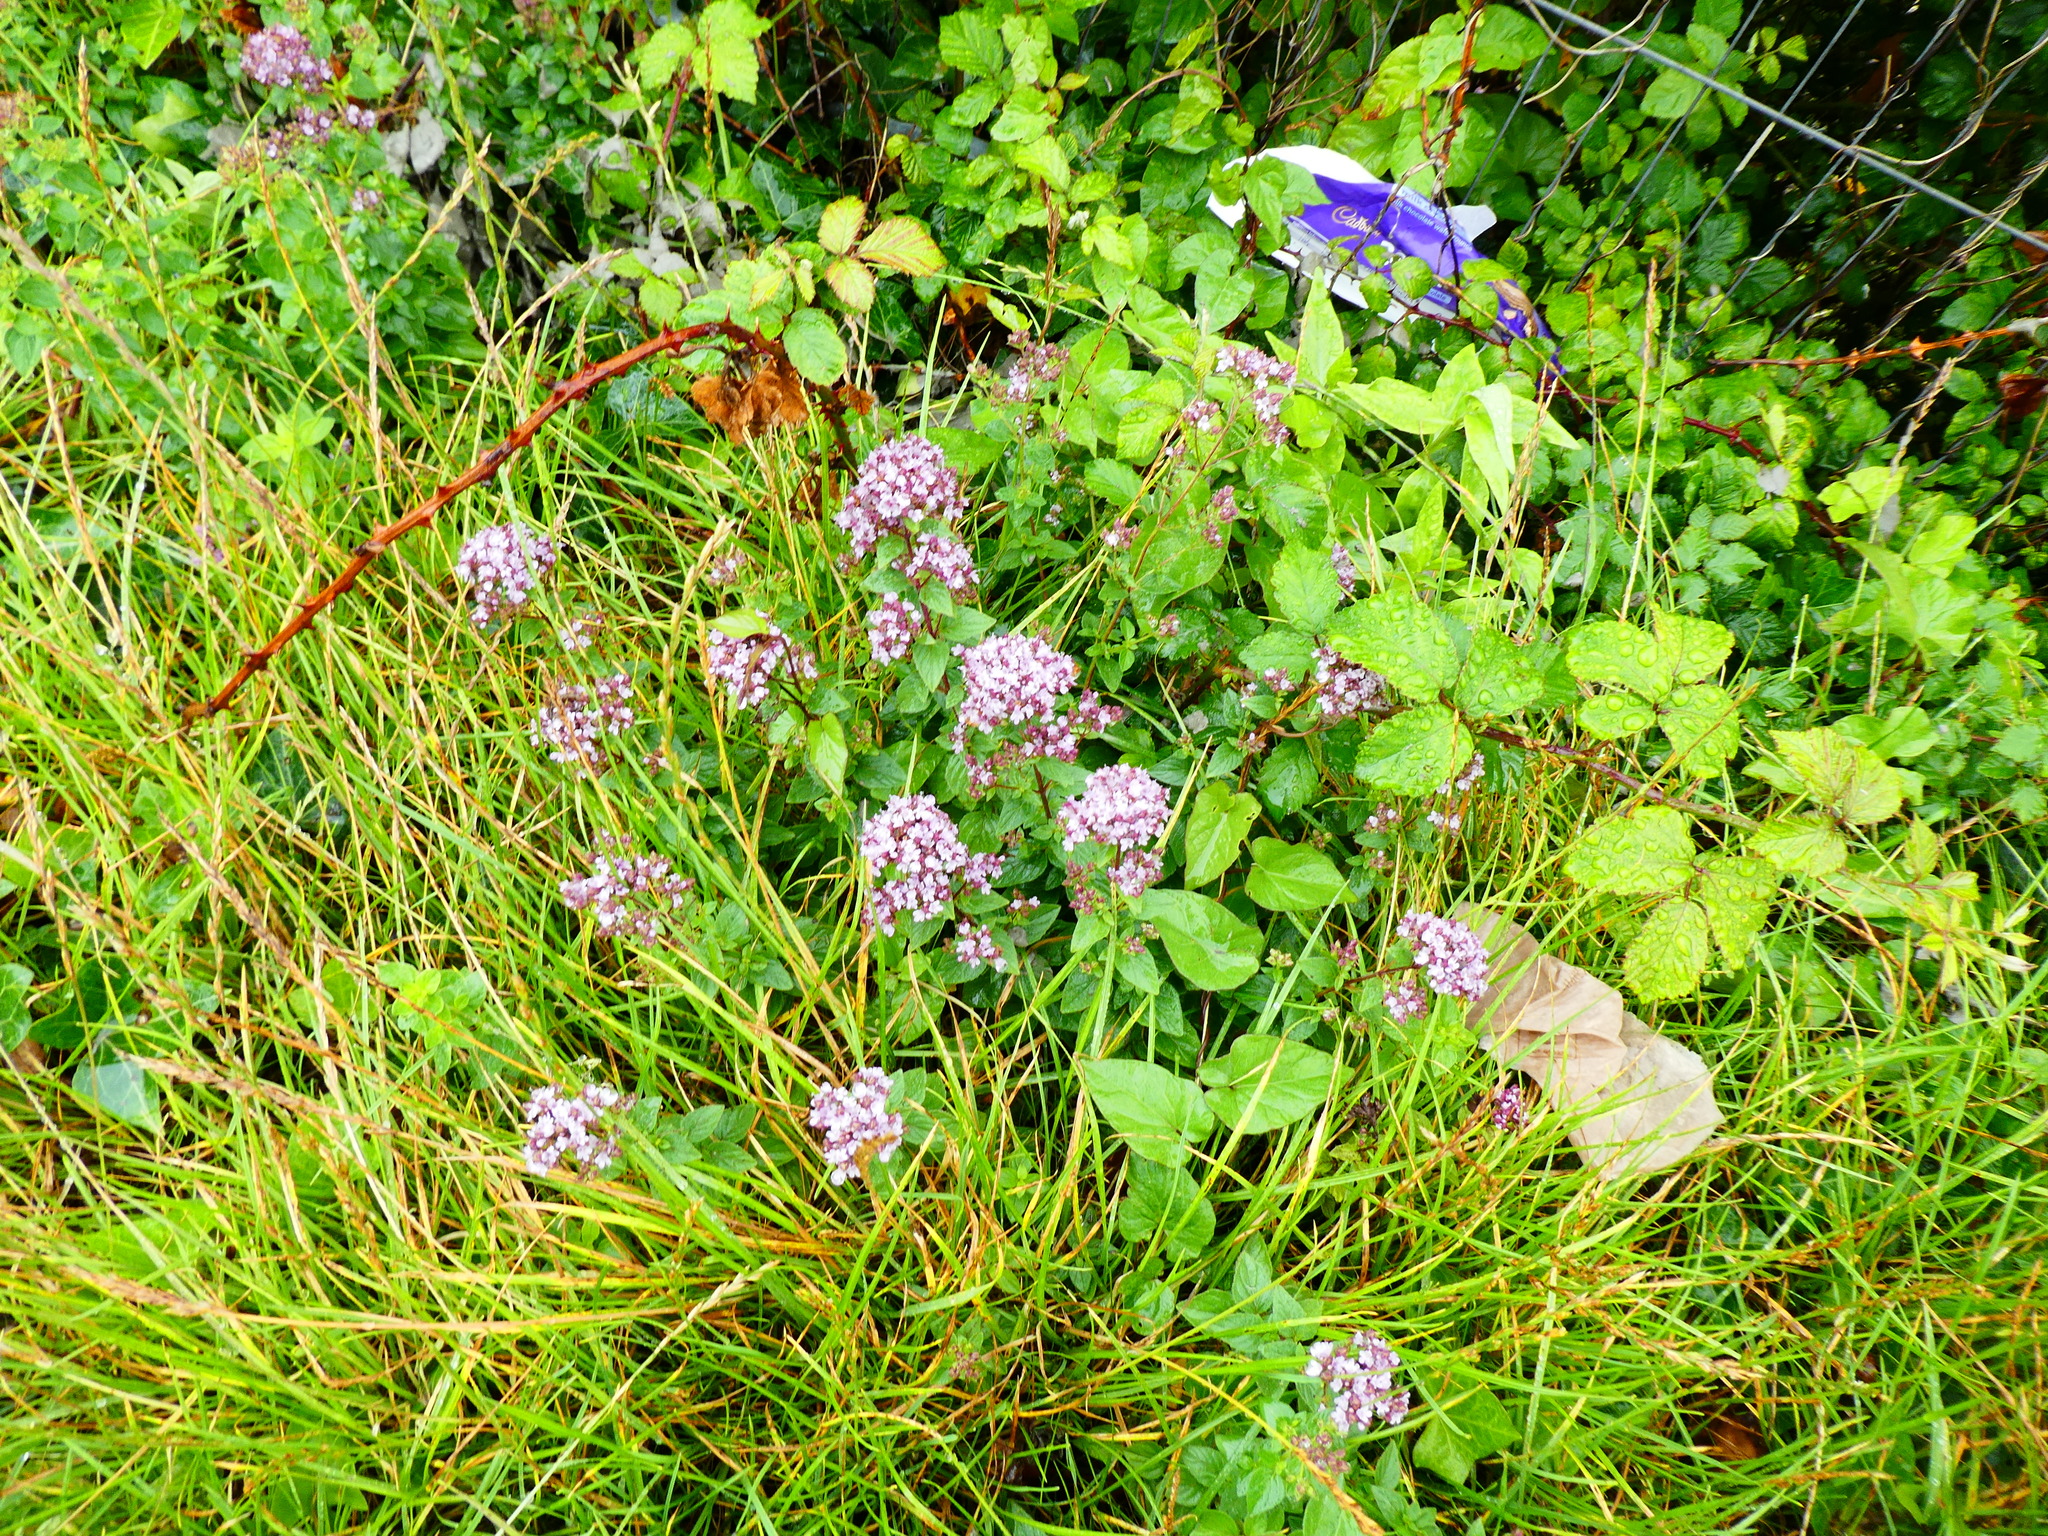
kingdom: Plantae
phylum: Tracheophyta
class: Magnoliopsida
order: Lamiales
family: Lamiaceae
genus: Origanum
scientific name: Origanum vulgare
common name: Wild marjoram
